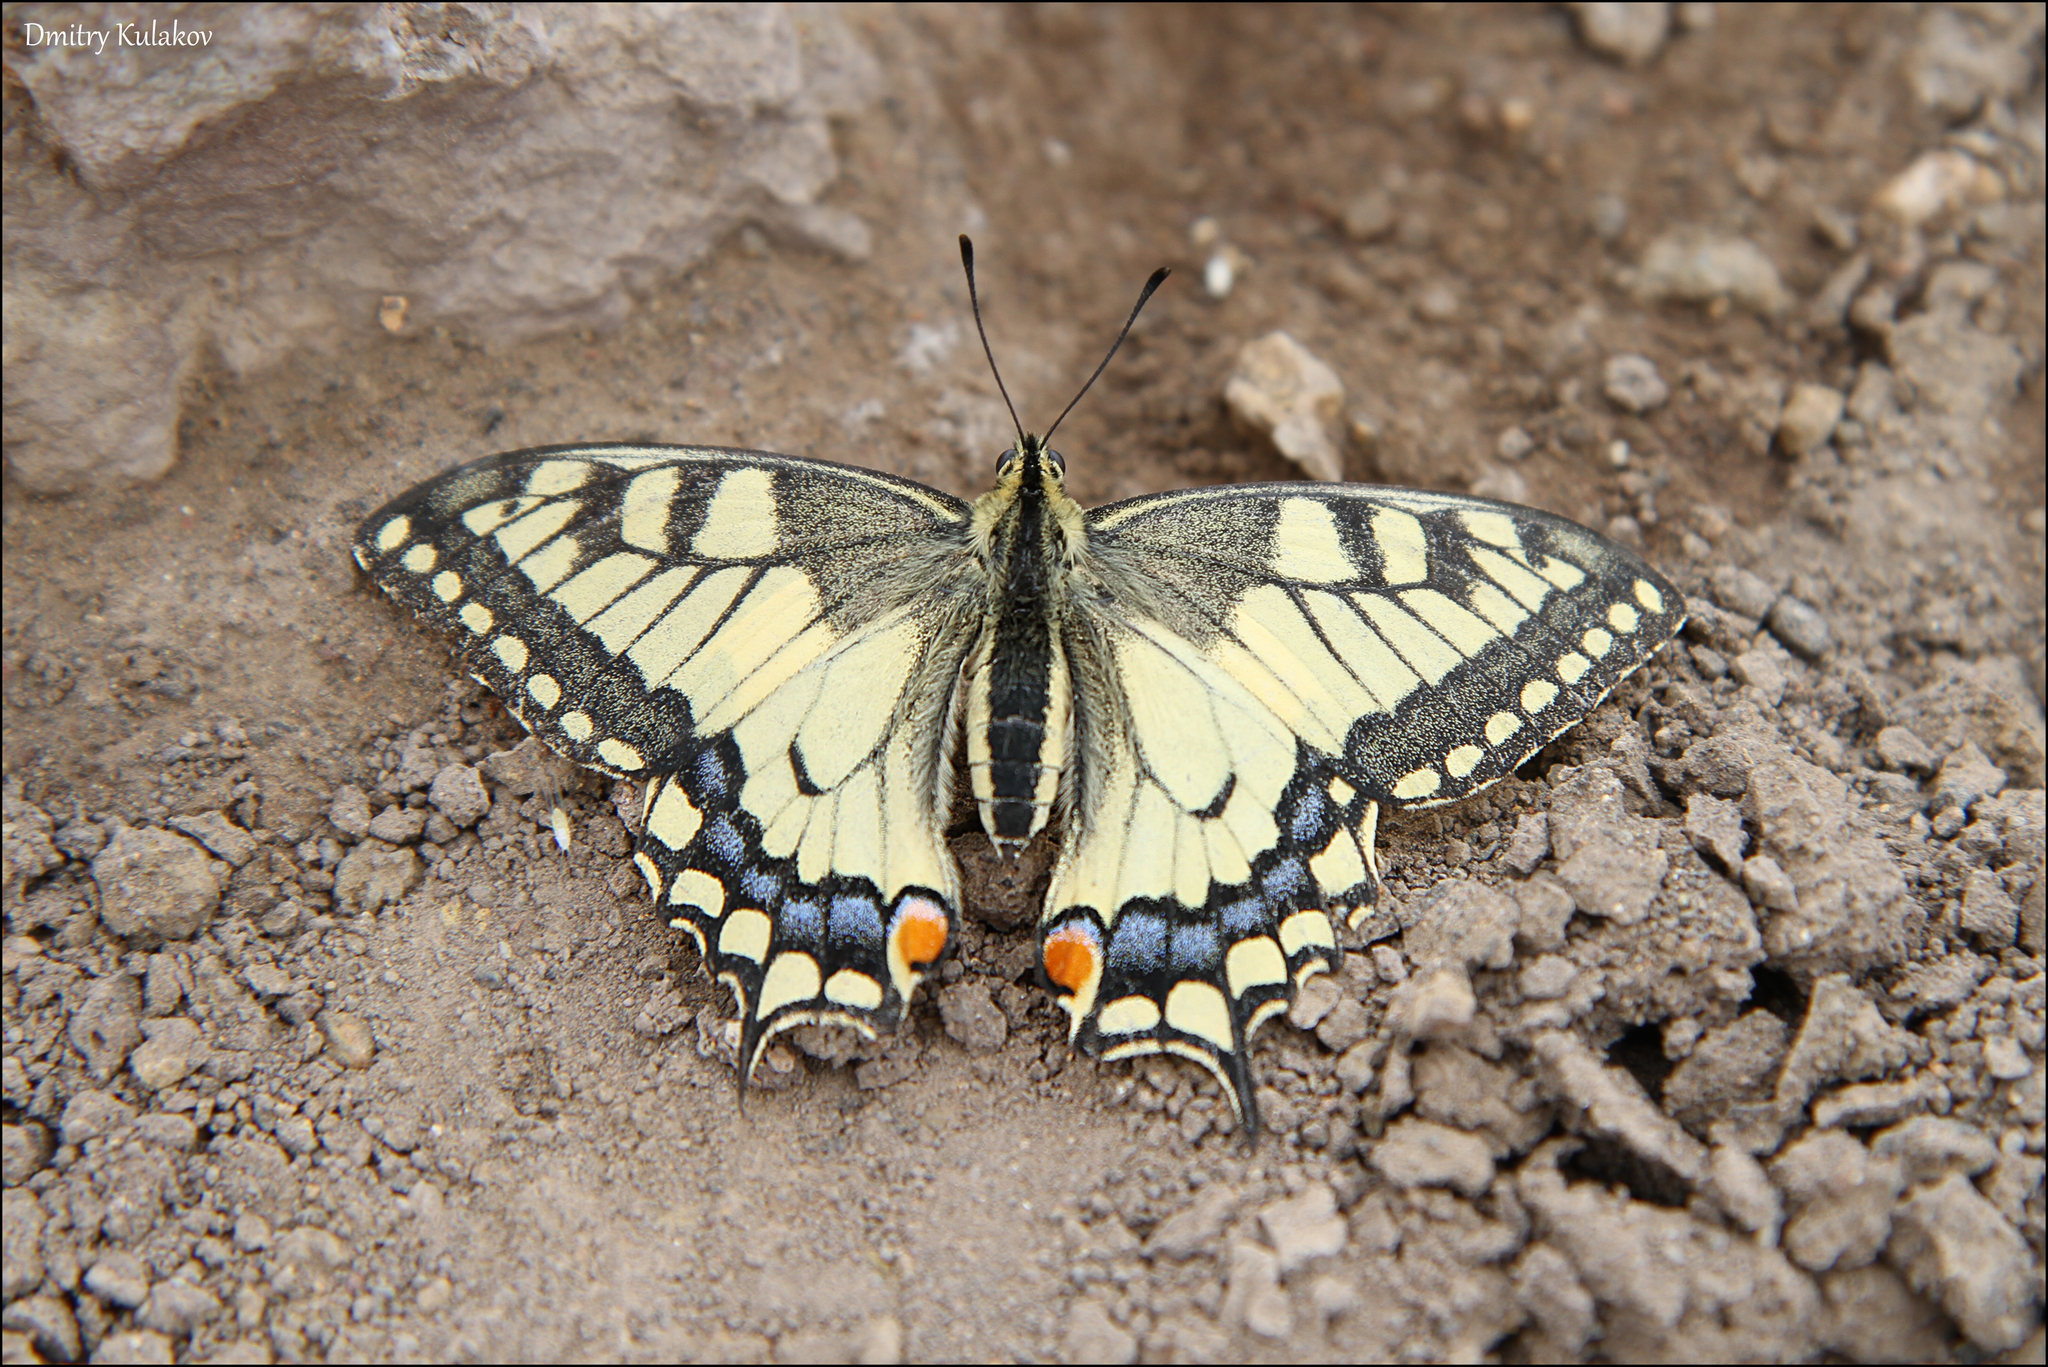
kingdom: Animalia
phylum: Arthropoda
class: Insecta
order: Lepidoptera
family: Papilionidae
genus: Papilio
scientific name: Papilio machaon
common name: Swallowtail
